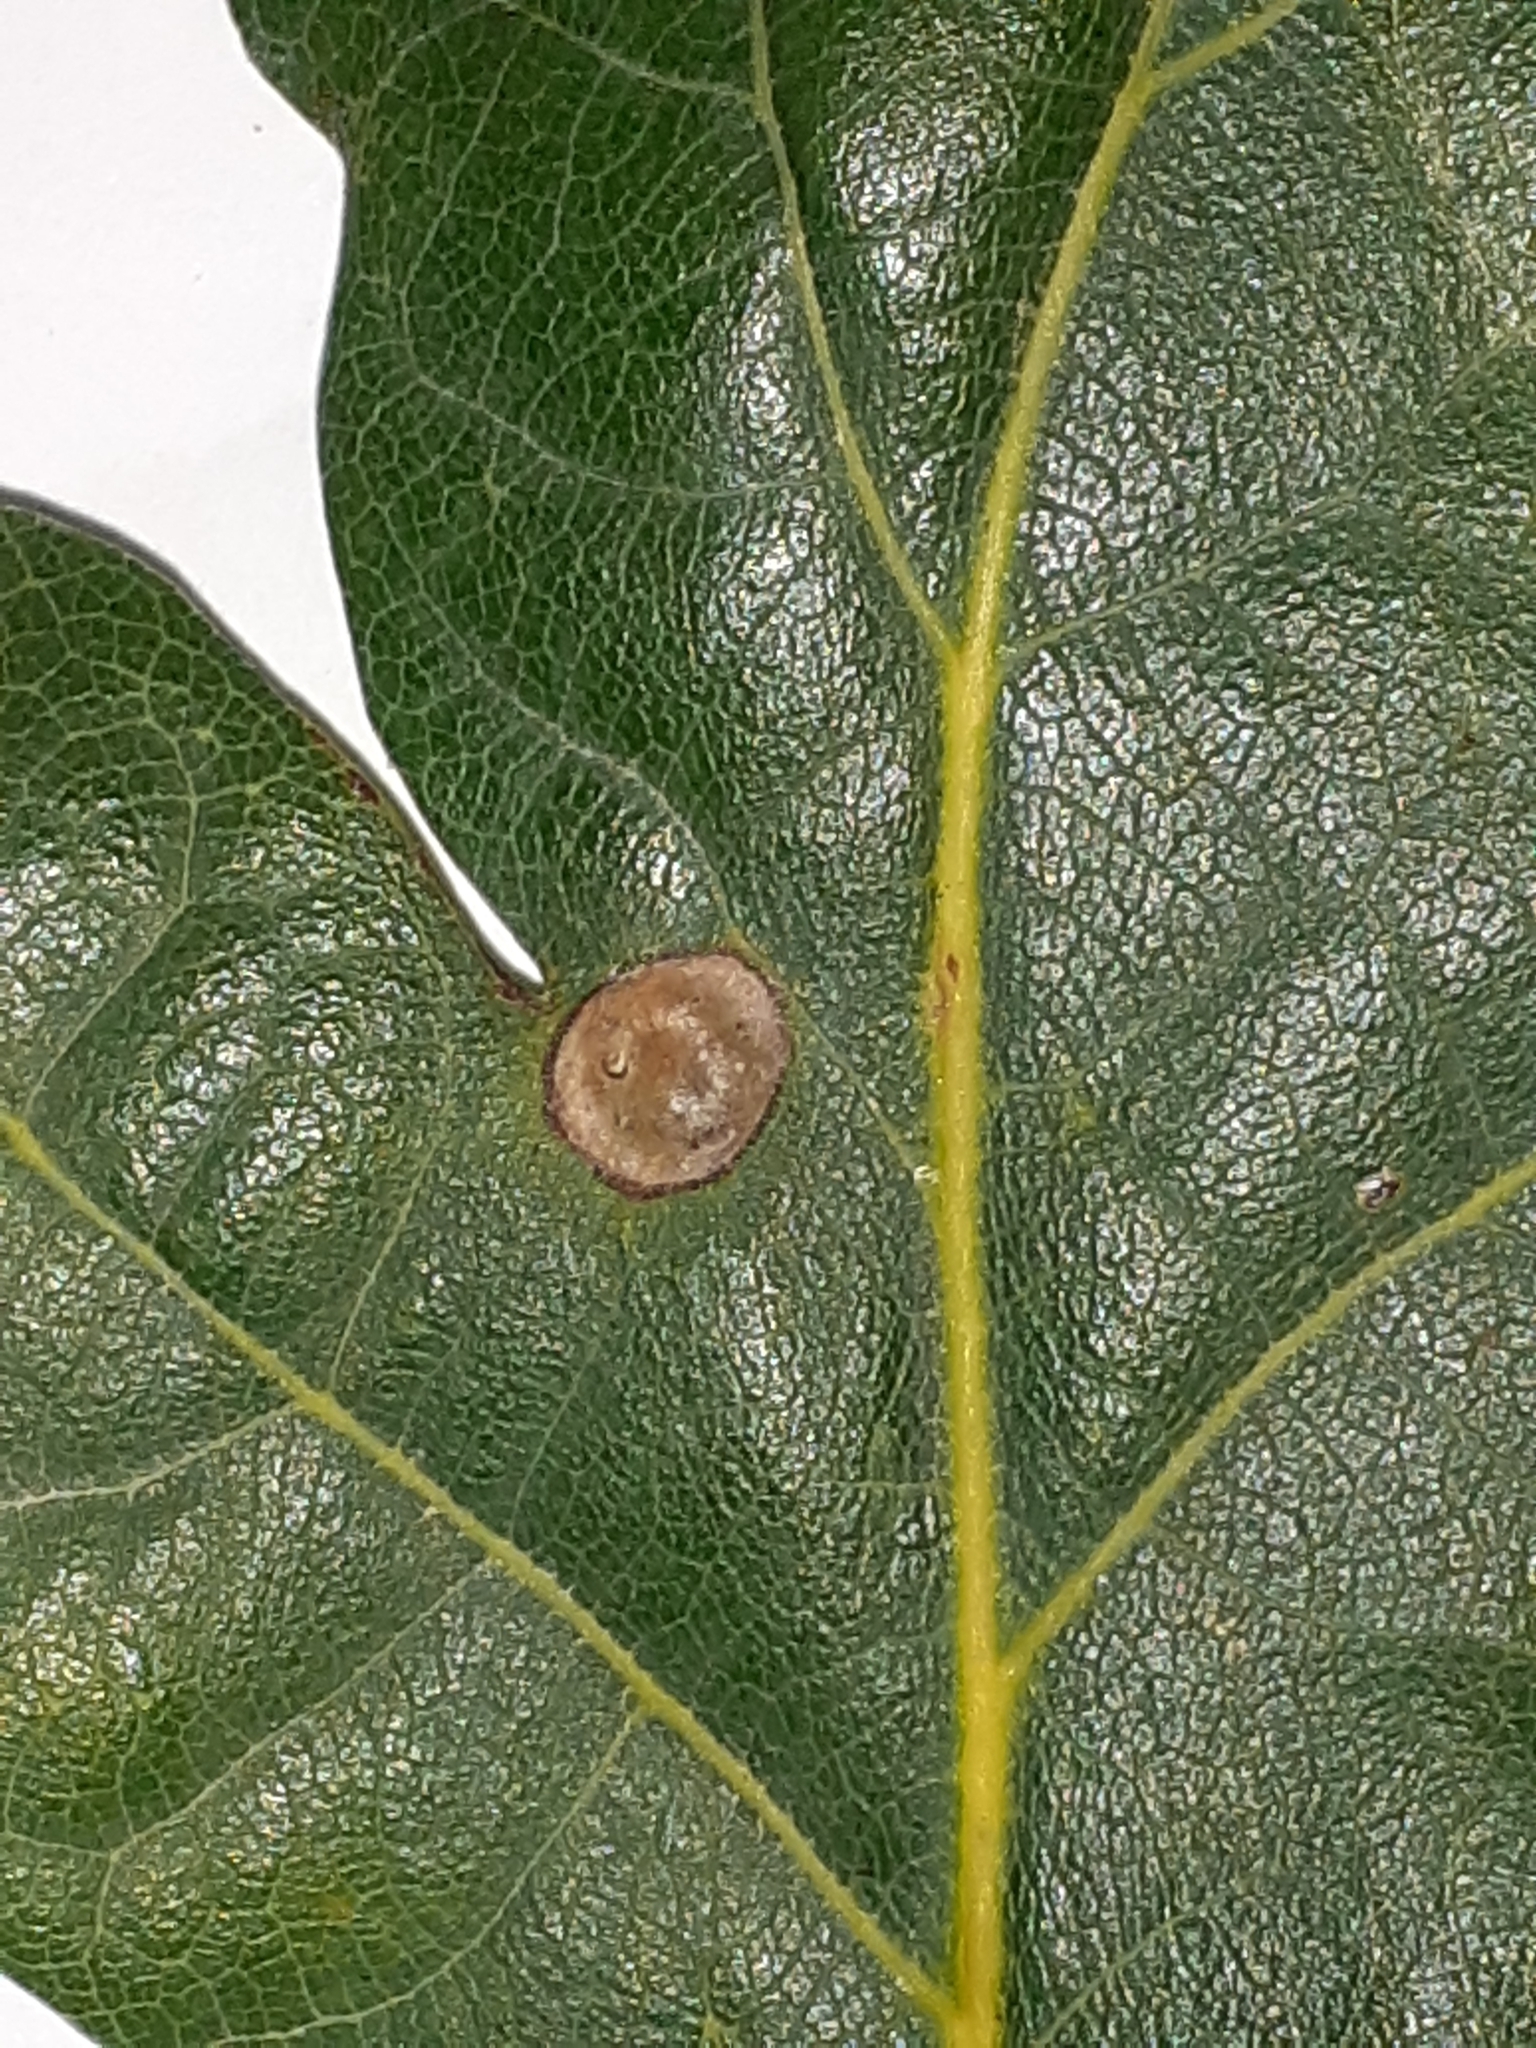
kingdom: Animalia
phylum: Arthropoda
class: Insecta
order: Hymenoptera
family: Cynipidae
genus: Neuroterus
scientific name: Neuroterus numismalis
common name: Silk-button spangle gall
